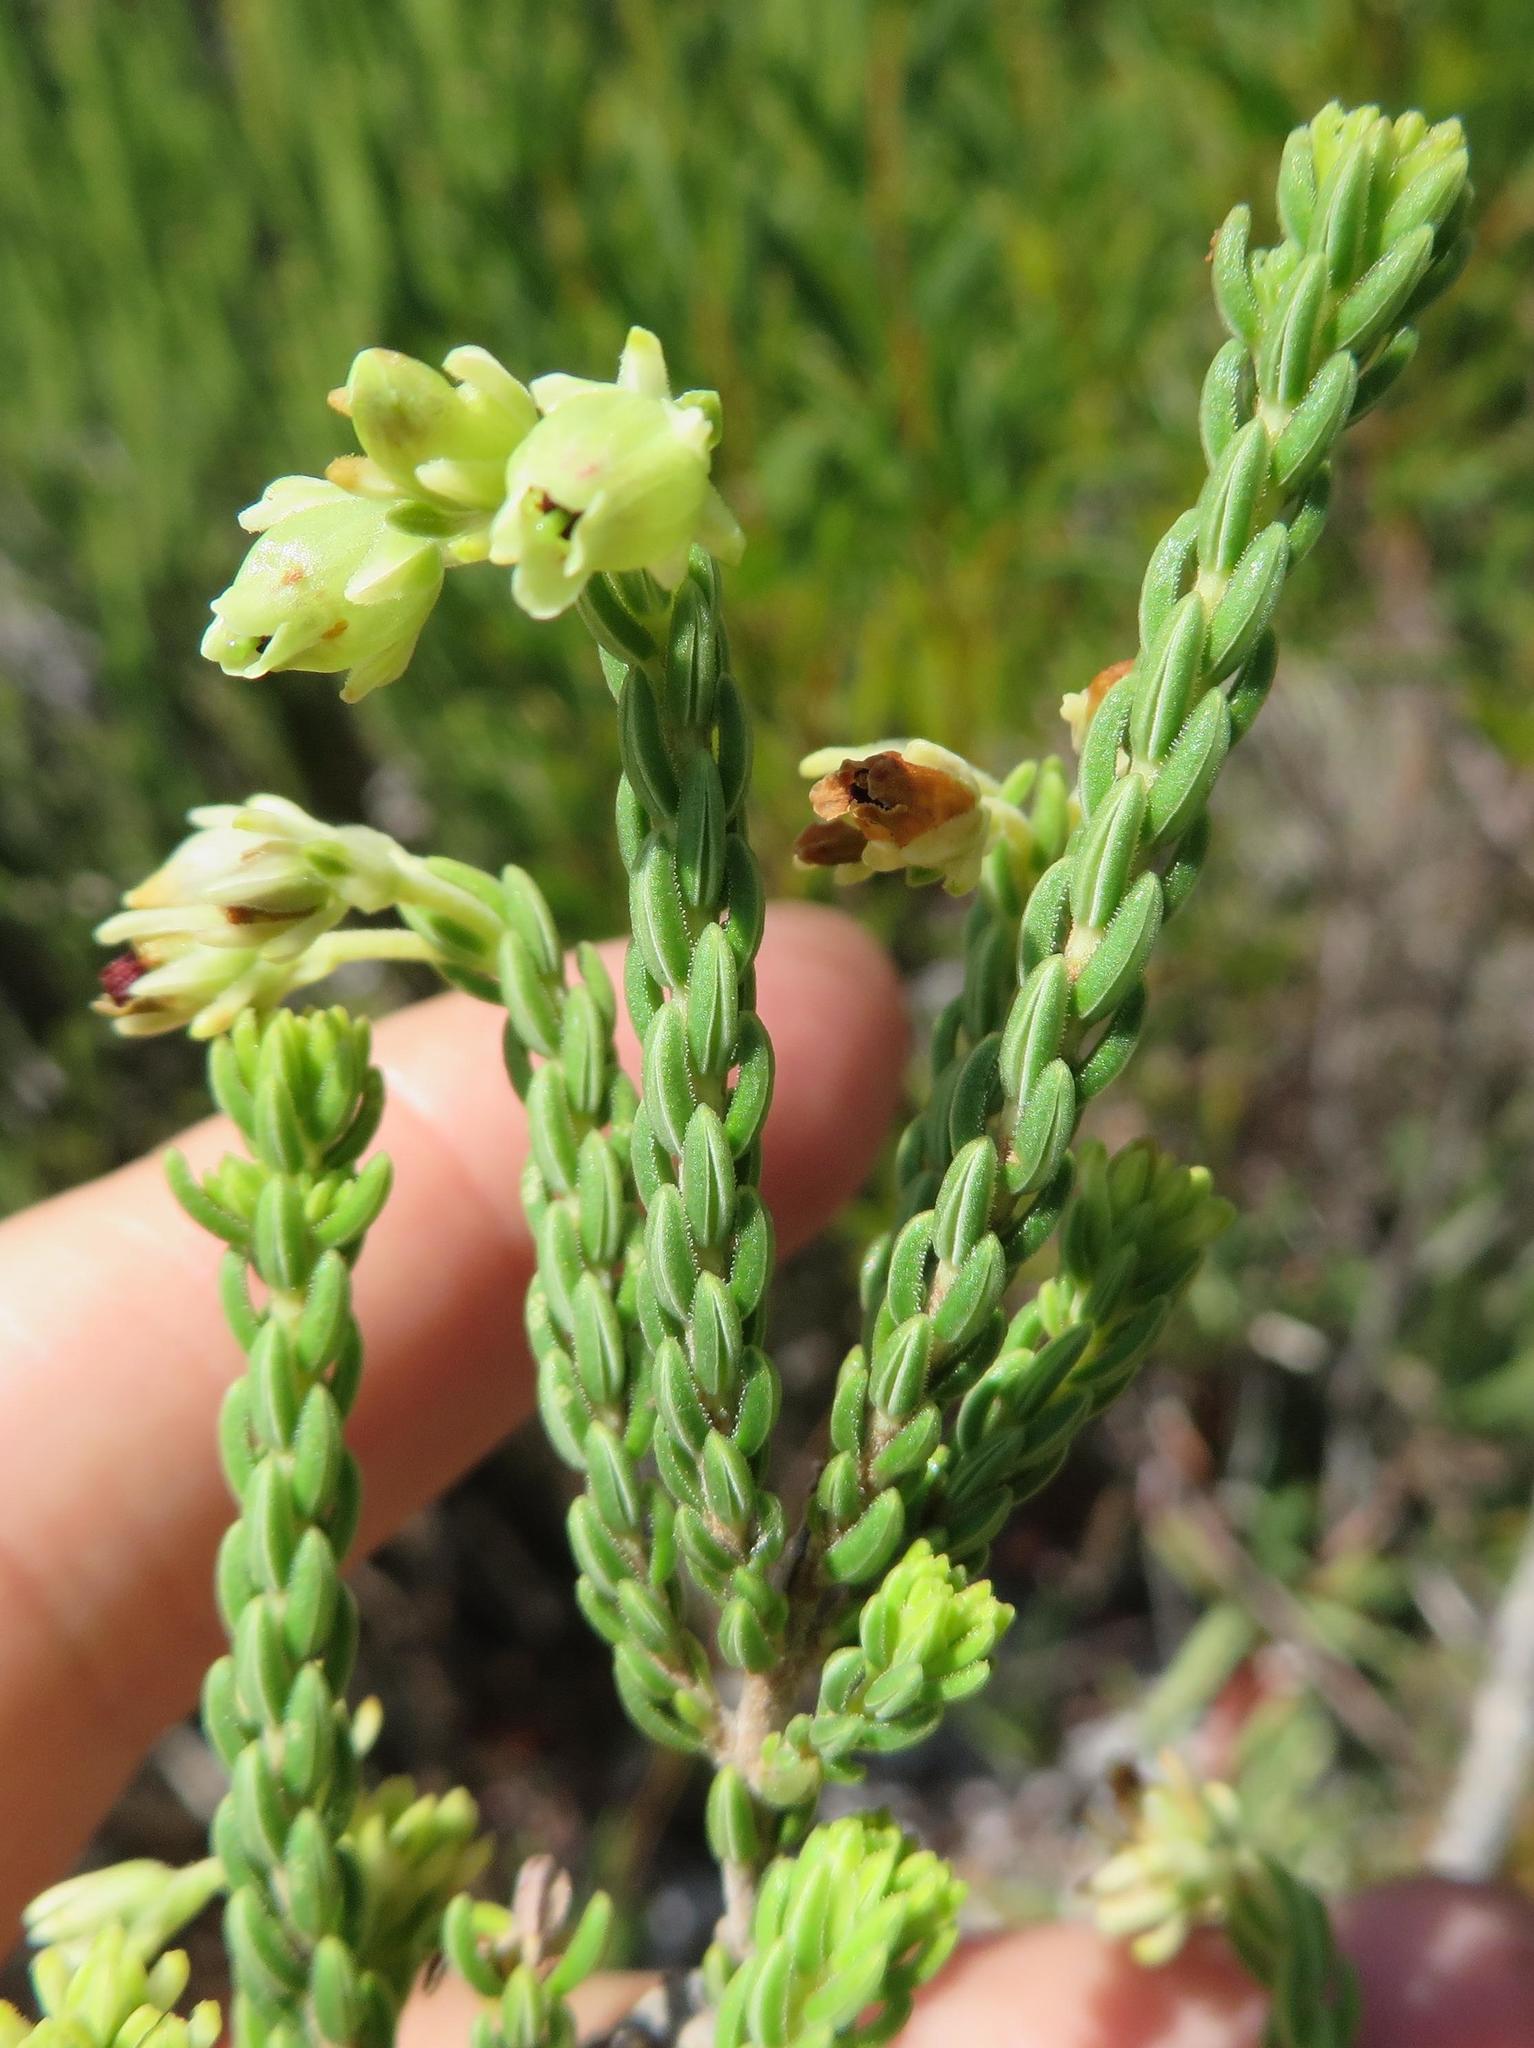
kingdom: Plantae
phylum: Tracheophyta
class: Magnoliopsida
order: Ericales
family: Ericaceae
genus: Erica
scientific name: Erica oblongiflora
